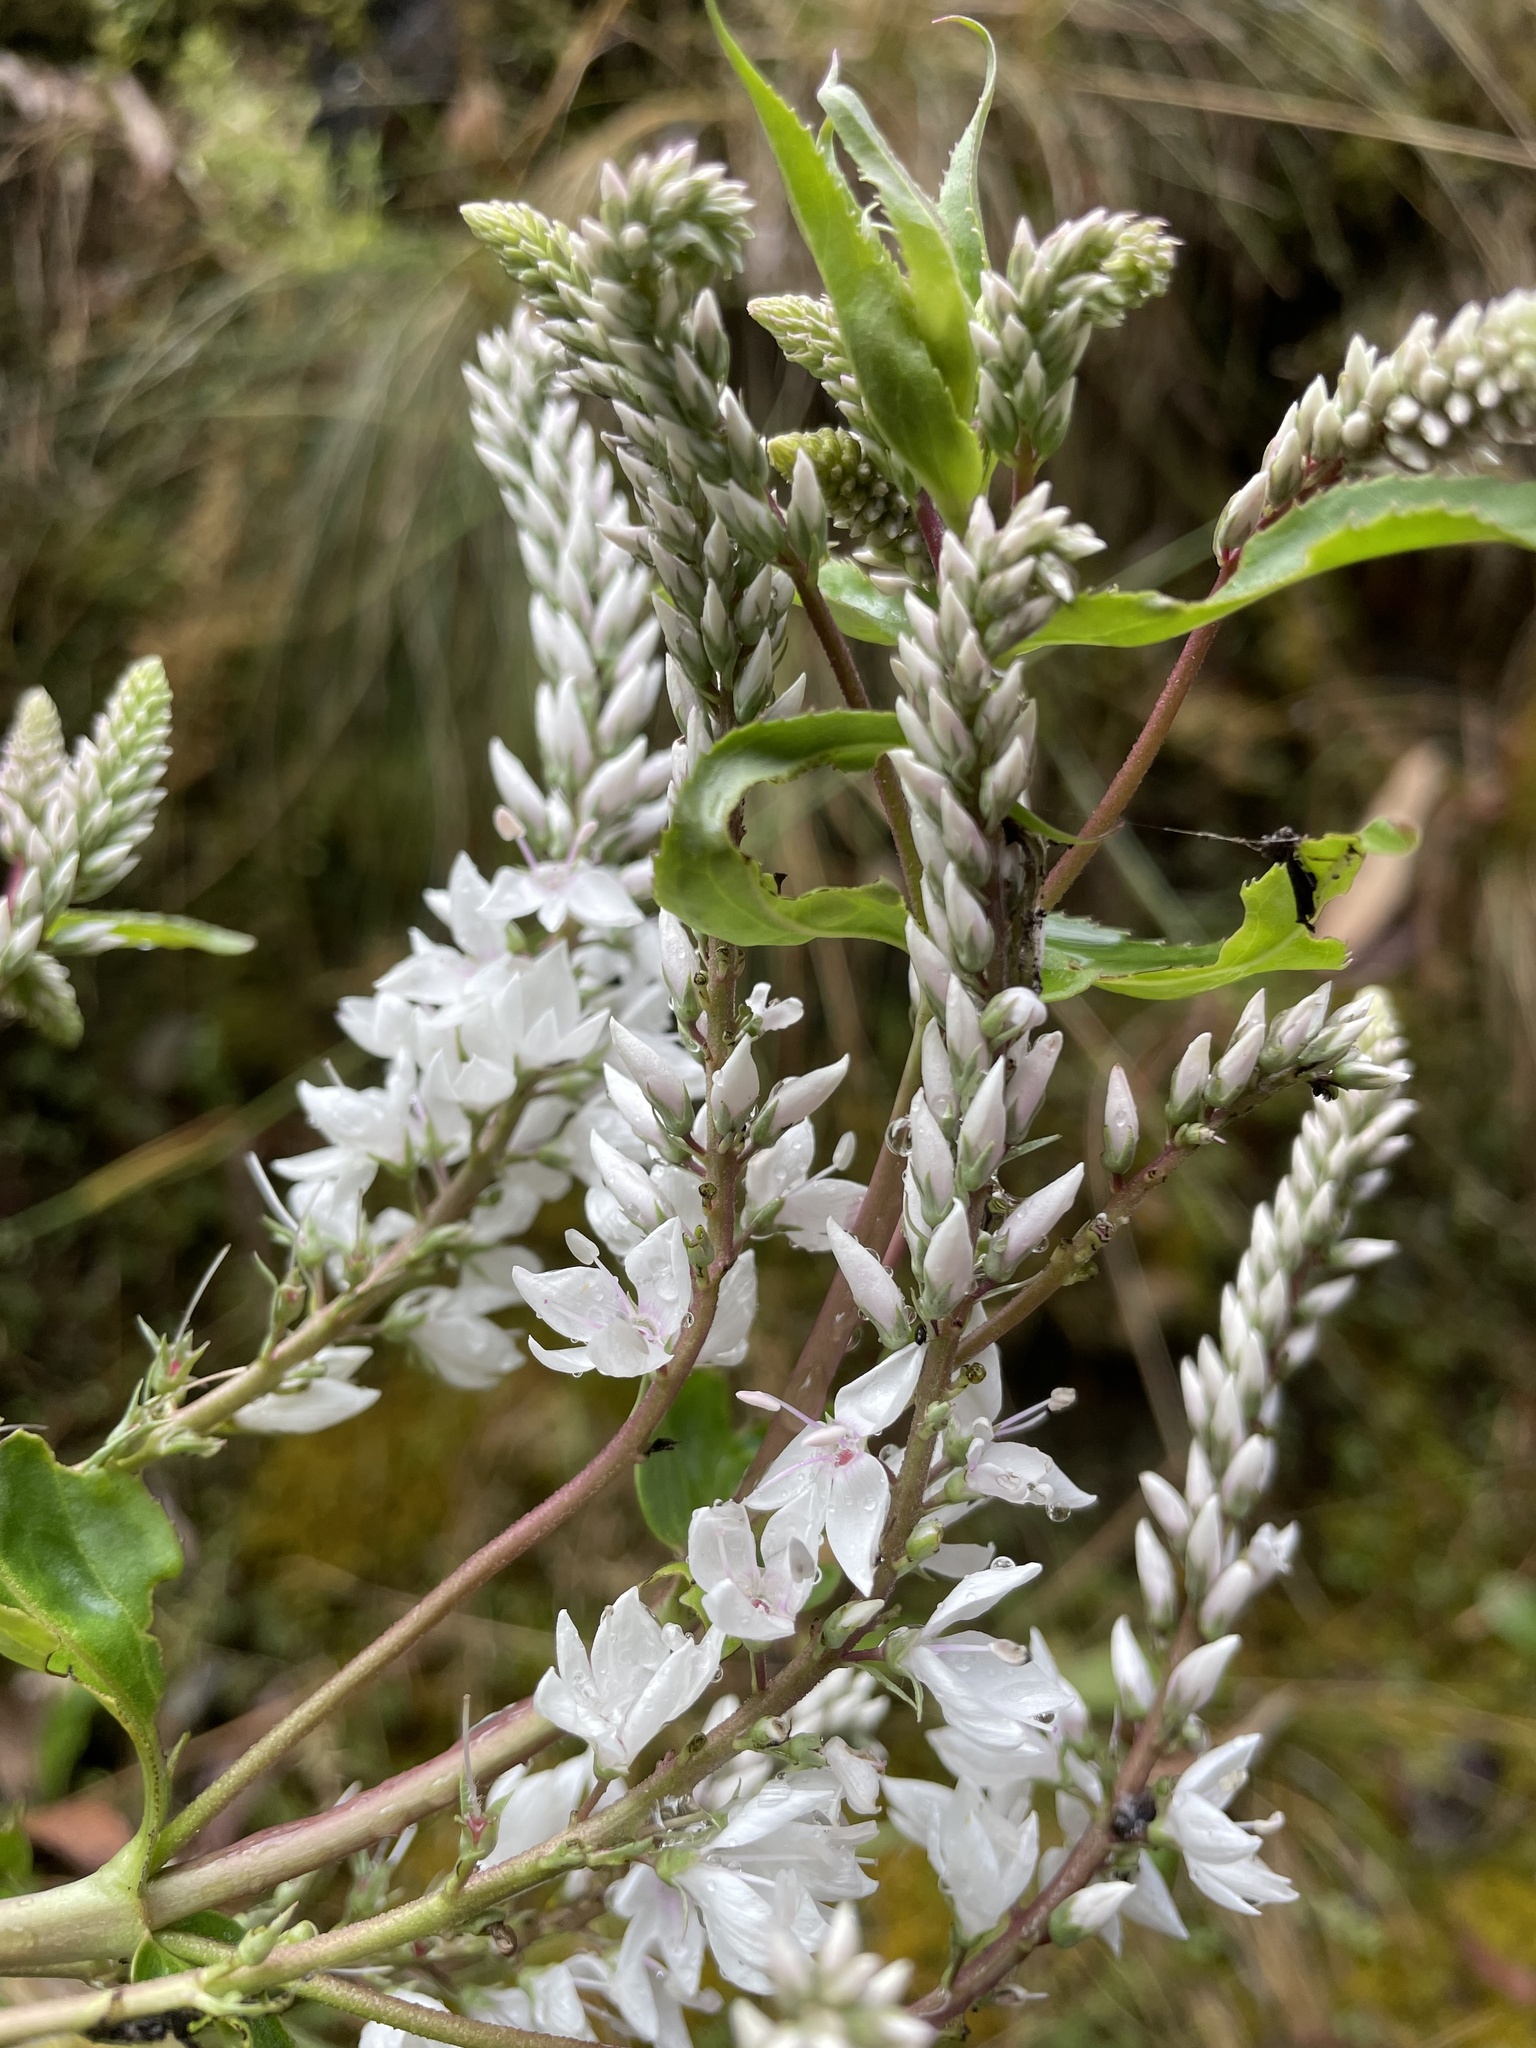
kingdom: Plantae
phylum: Tracheophyta
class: Magnoliopsida
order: Lamiales
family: Plantaginaceae
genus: Veronica
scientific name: Veronica derwentiana
